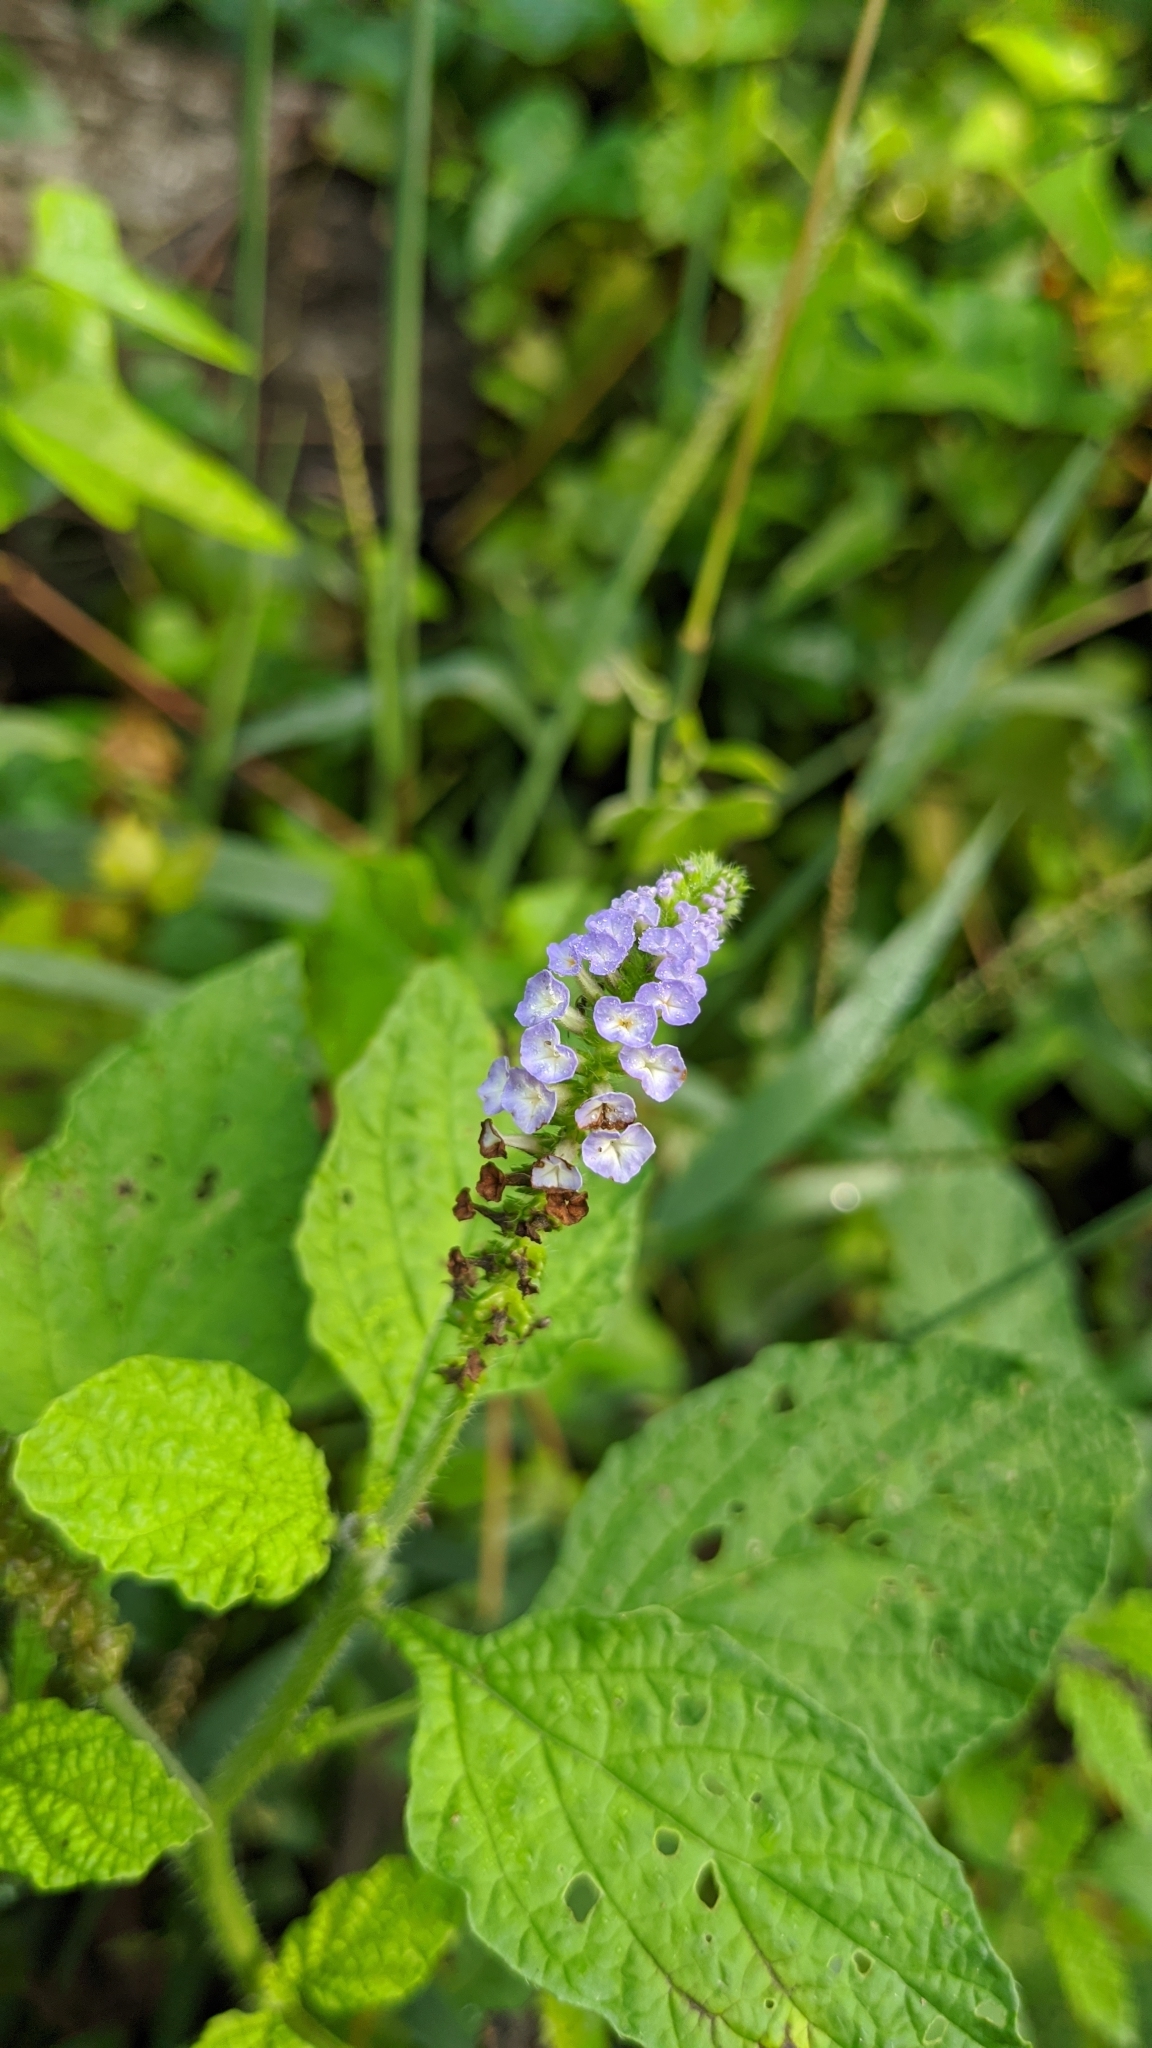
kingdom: Plantae
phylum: Tracheophyta
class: Magnoliopsida
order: Boraginales
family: Heliotropiaceae
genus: Heliotropium
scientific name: Heliotropium indicum
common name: Indian heliotrope
